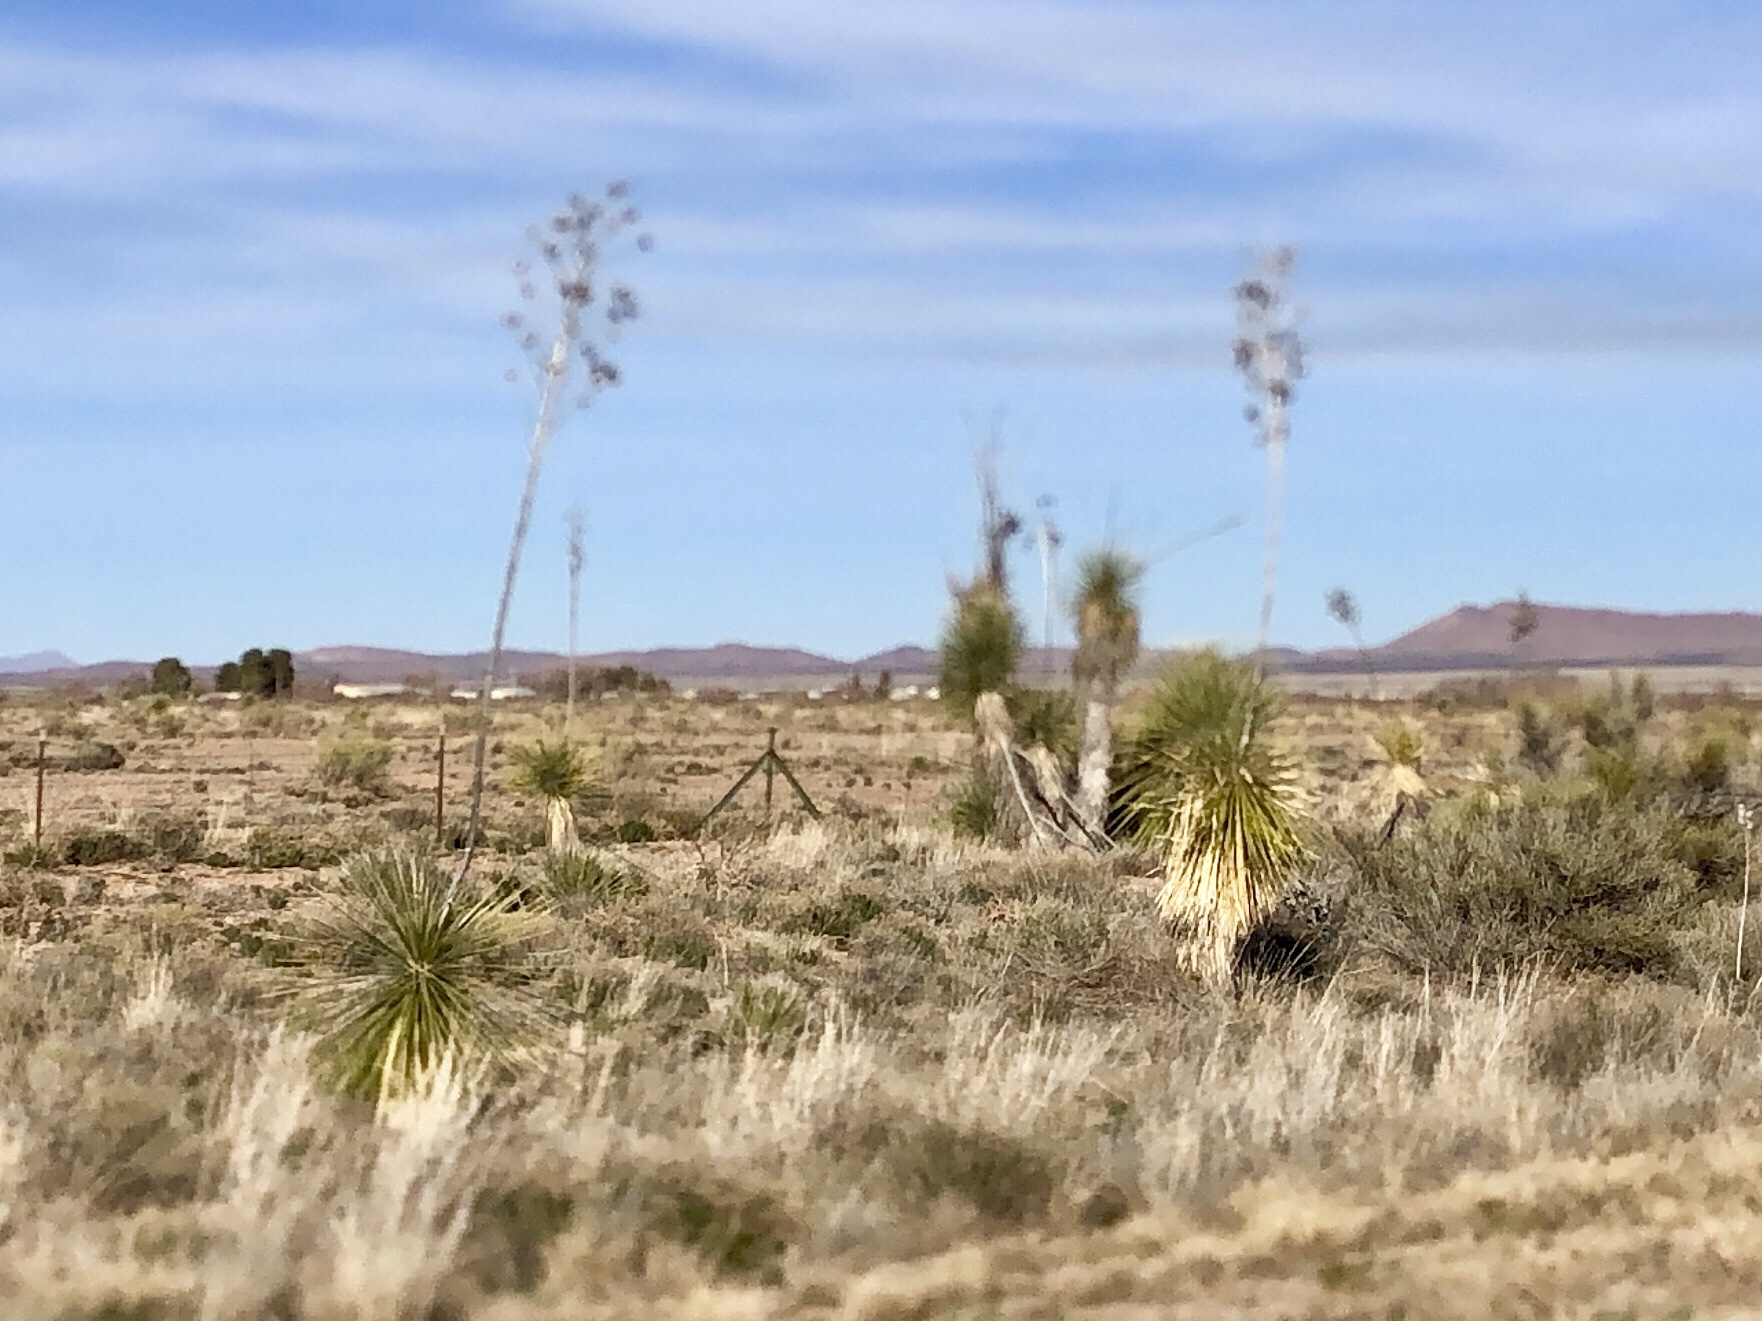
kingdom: Plantae
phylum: Tracheophyta
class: Liliopsida
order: Asparagales
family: Asparagaceae
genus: Yucca
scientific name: Yucca elata
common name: Palmella
